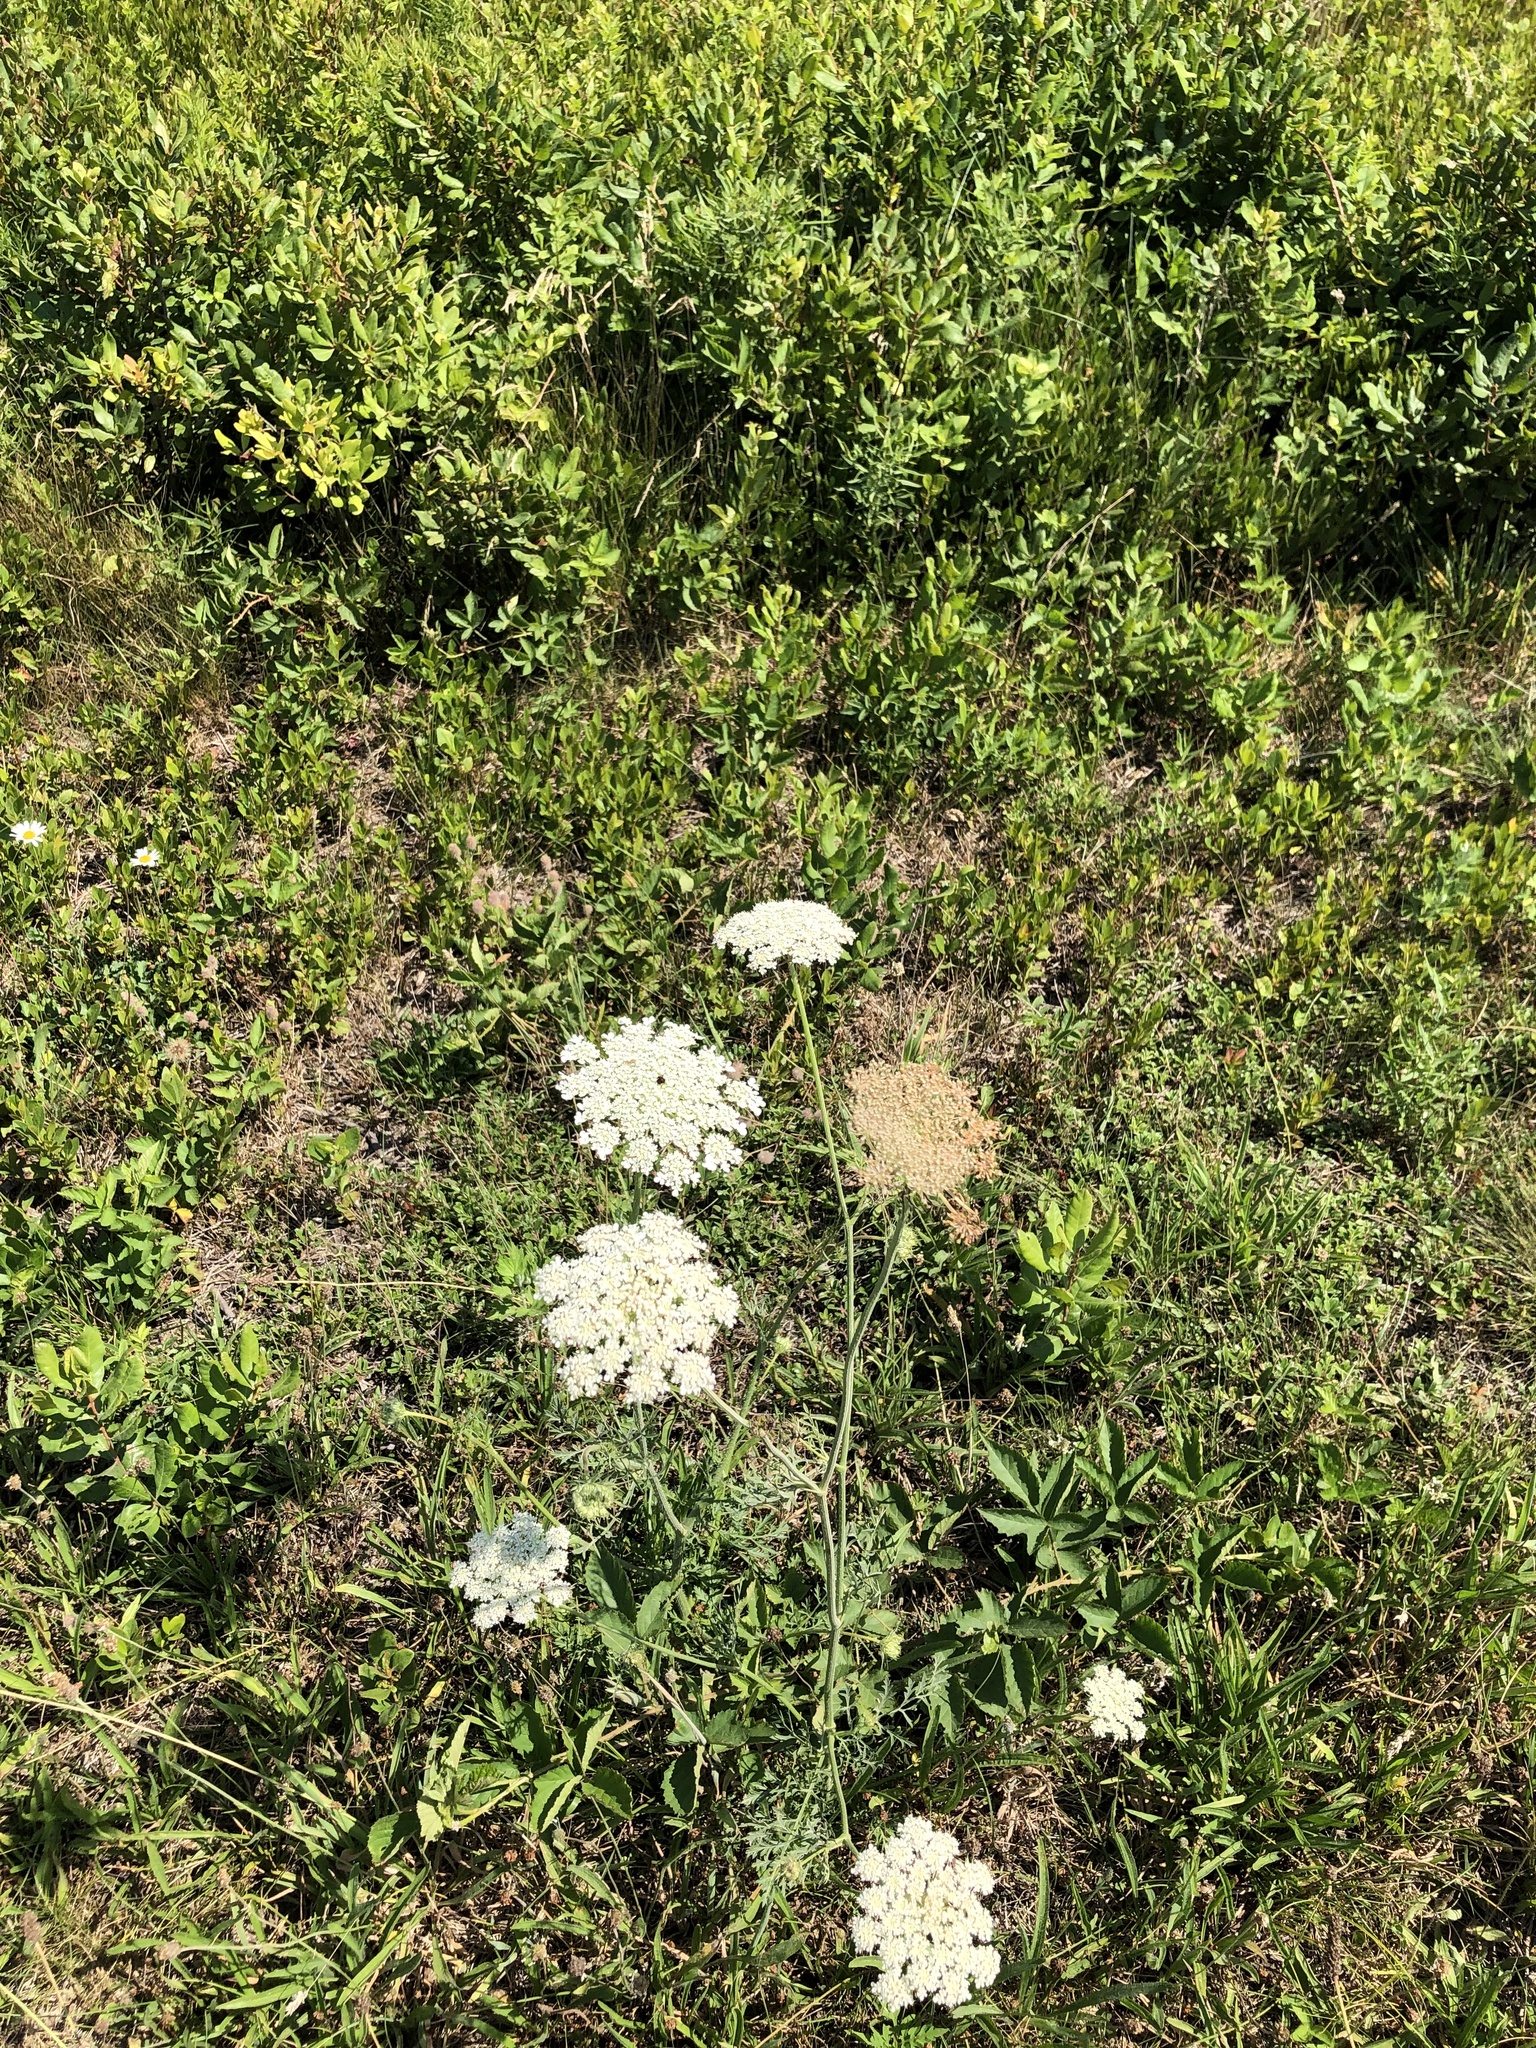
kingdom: Plantae
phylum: Tracheophyta
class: Magnoliopsida
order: Apiales
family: Apiaceae
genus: Daucus
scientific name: Daucus carota
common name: Wild carrot
